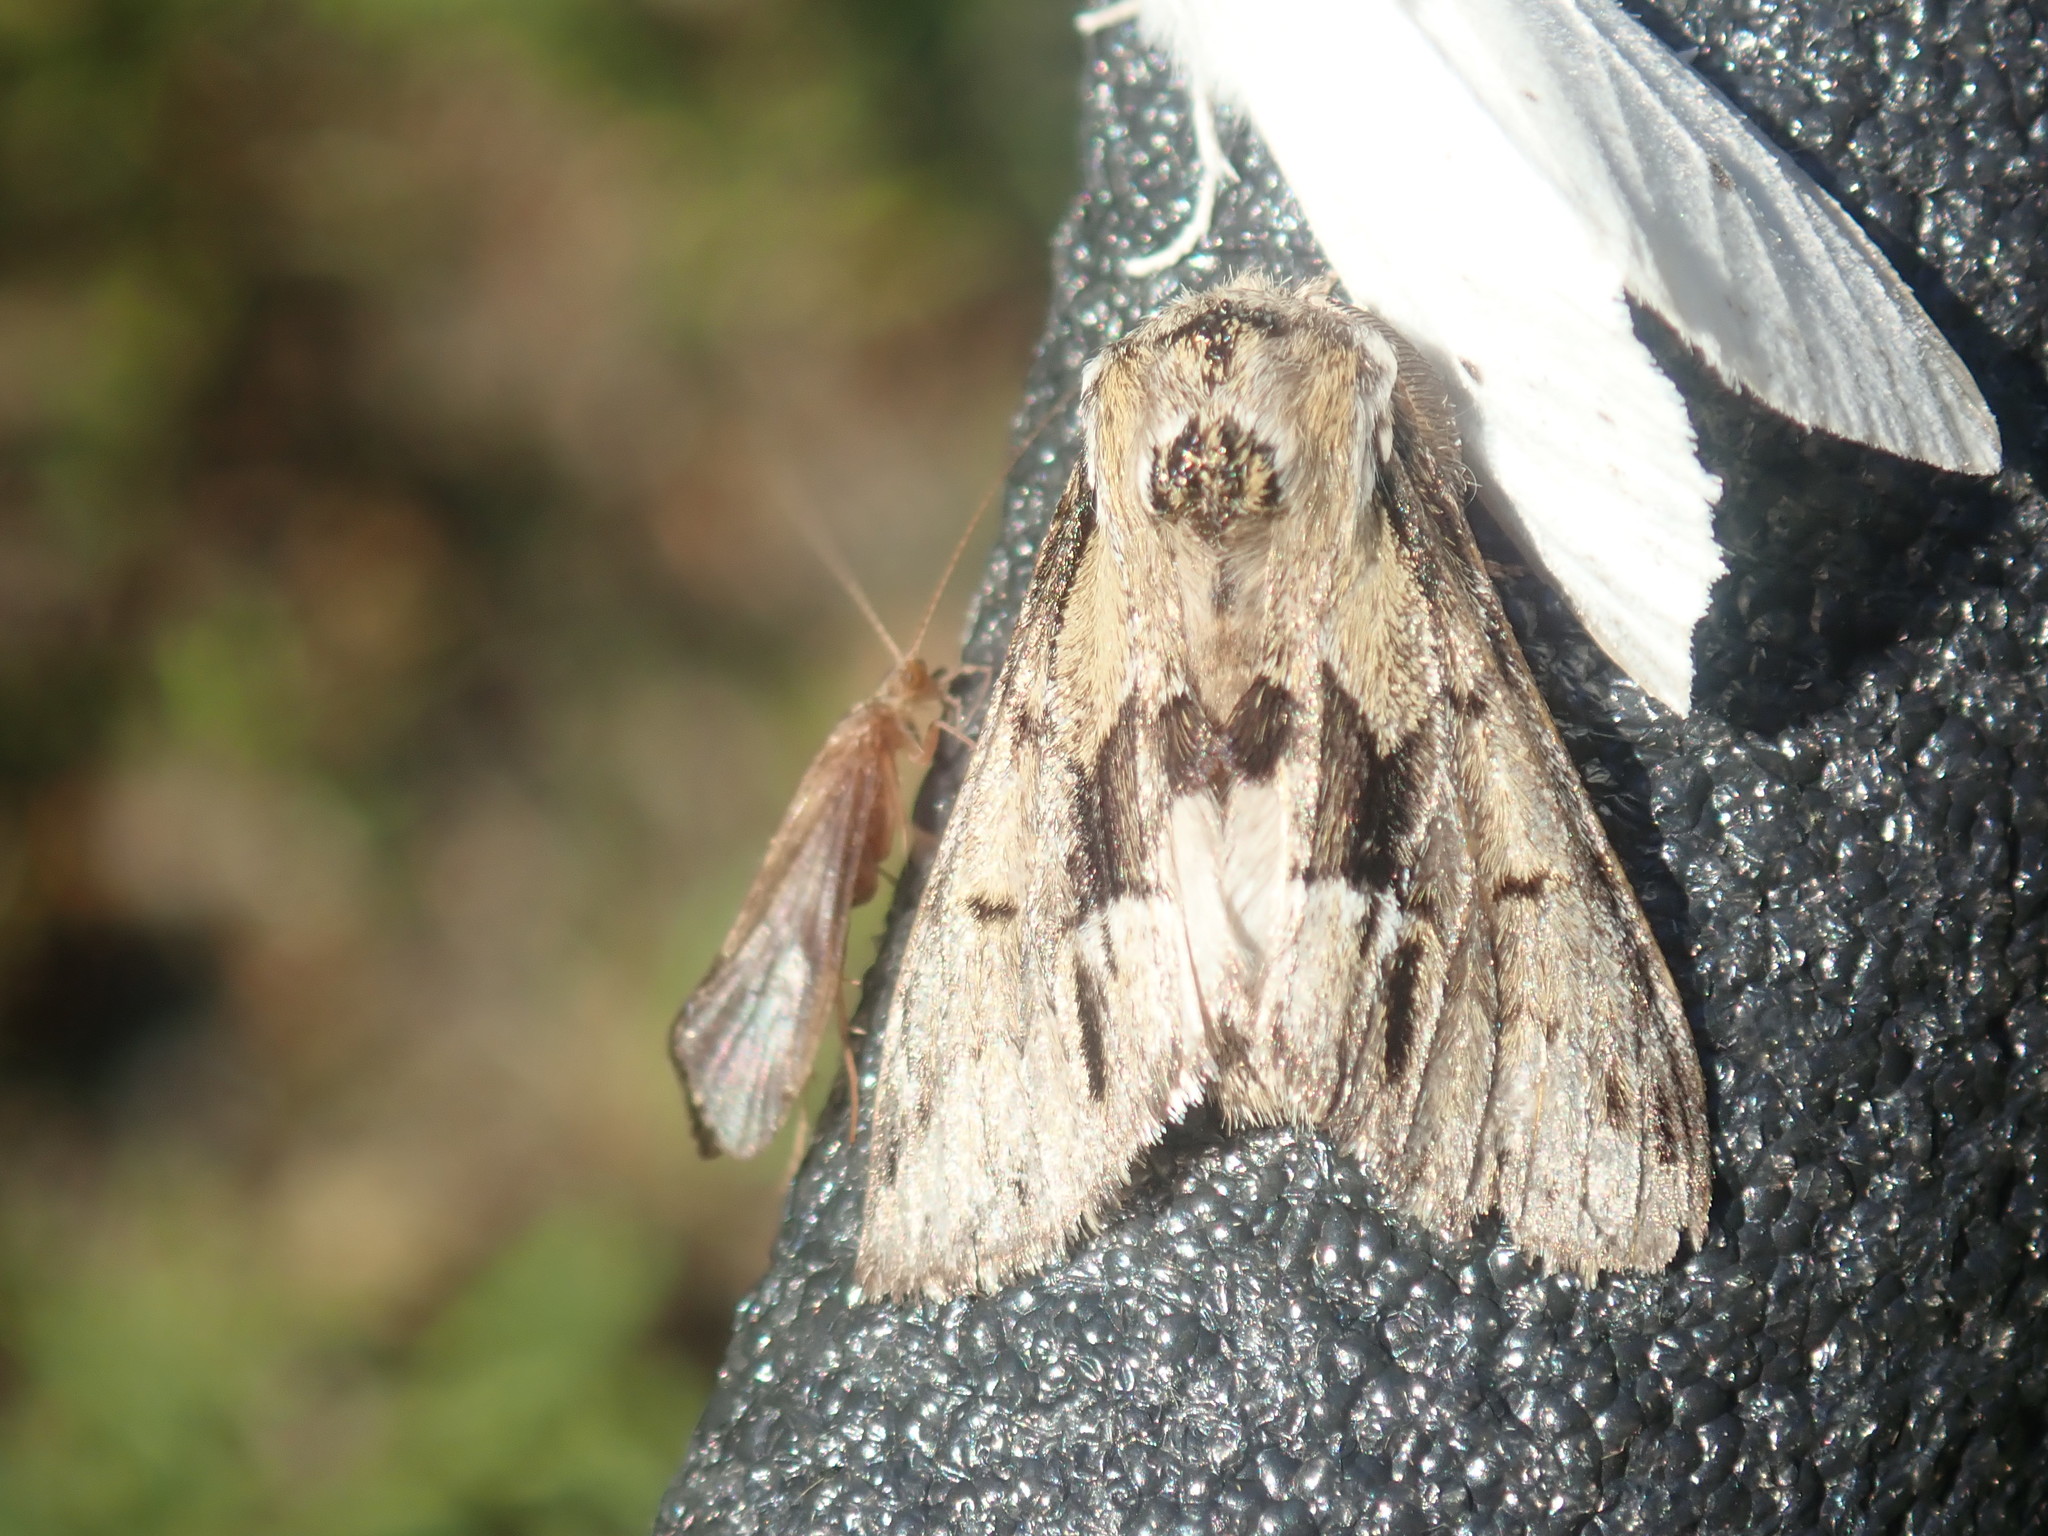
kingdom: Animalia
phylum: Arthropoda
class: Insecta
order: Lepidoptera
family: Notodontidae
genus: Paraeschra
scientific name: Paraeschra georgica
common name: Georgian prominent
